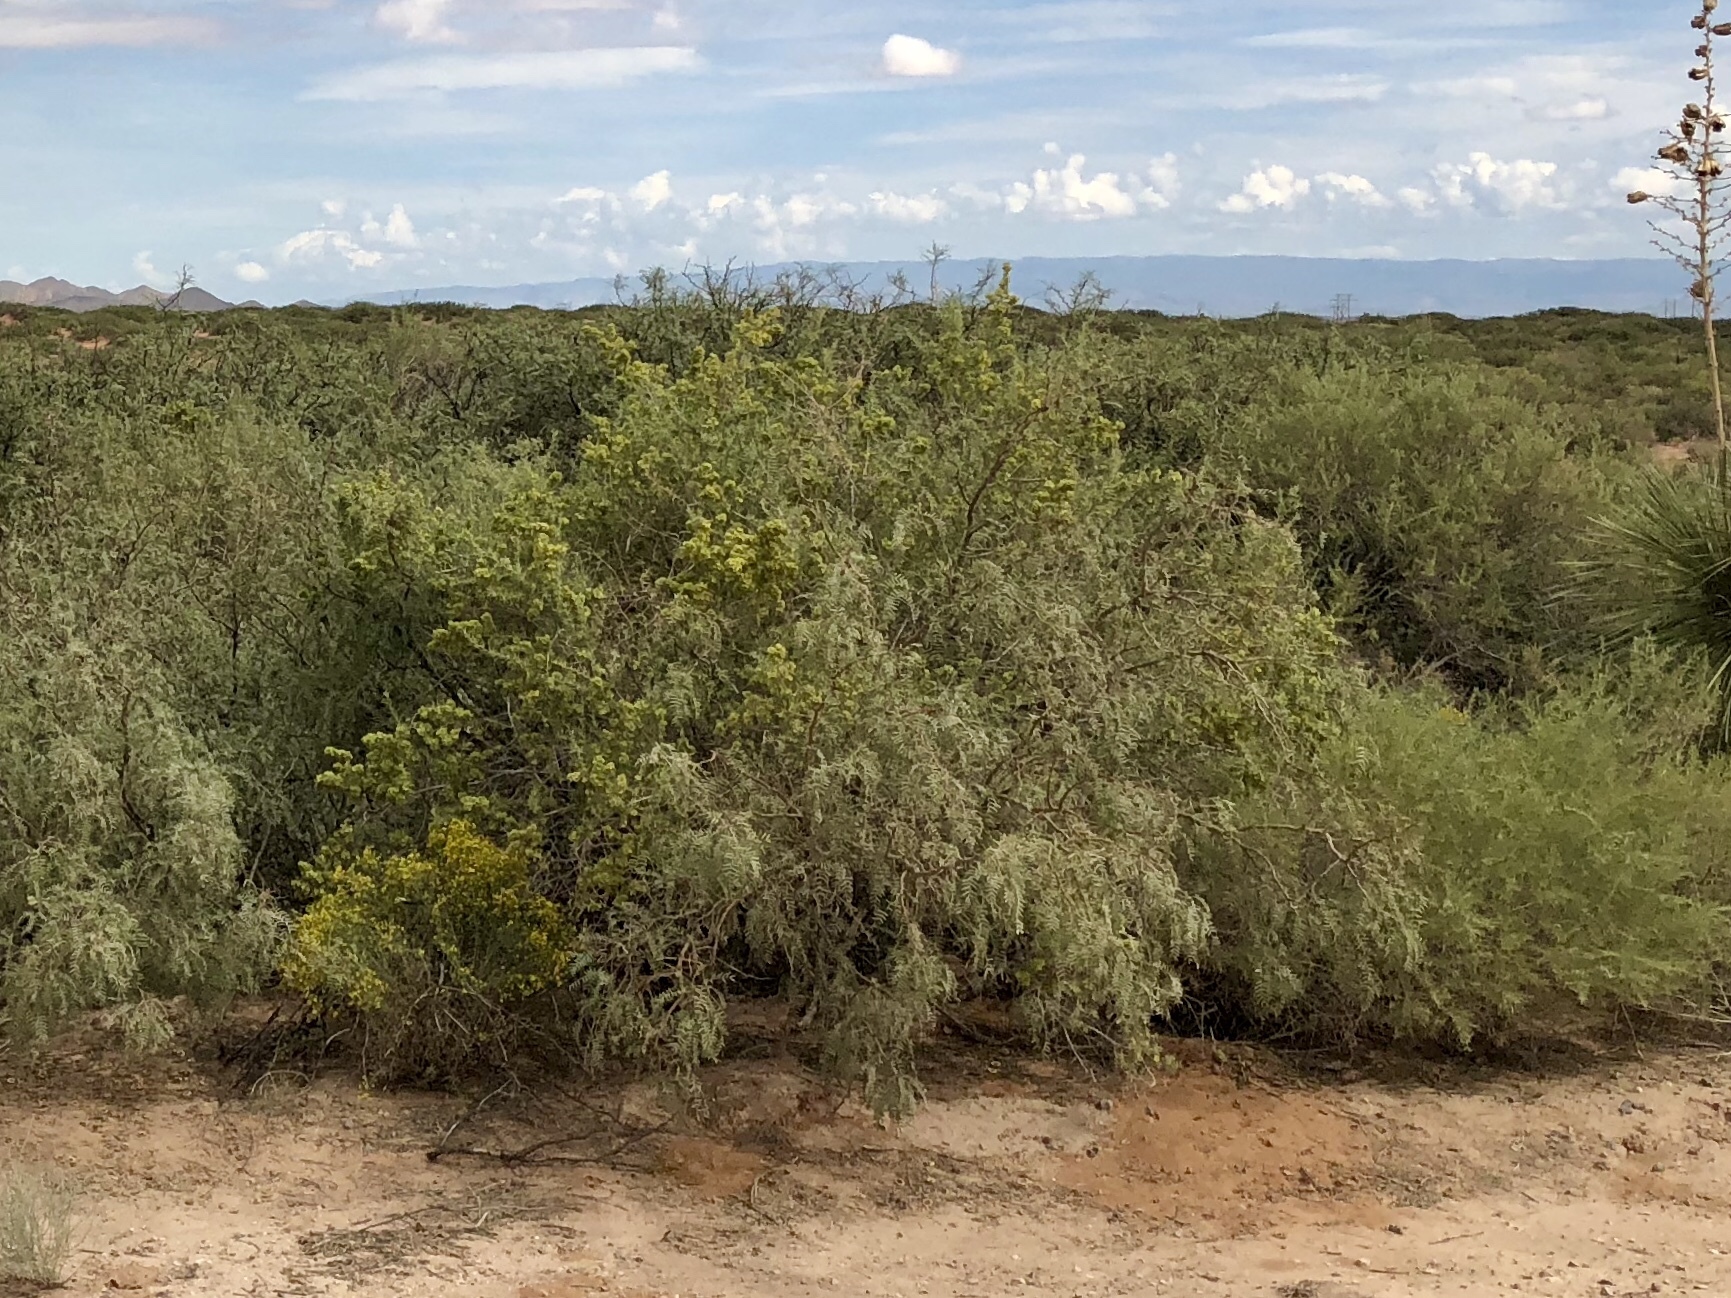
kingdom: Plantae
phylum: Tracheophyta
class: Magnoliopsida
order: Fabales
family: Fabaceae
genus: Prosopis
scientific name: Prosopis glandulosa
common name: Honey mesquite
